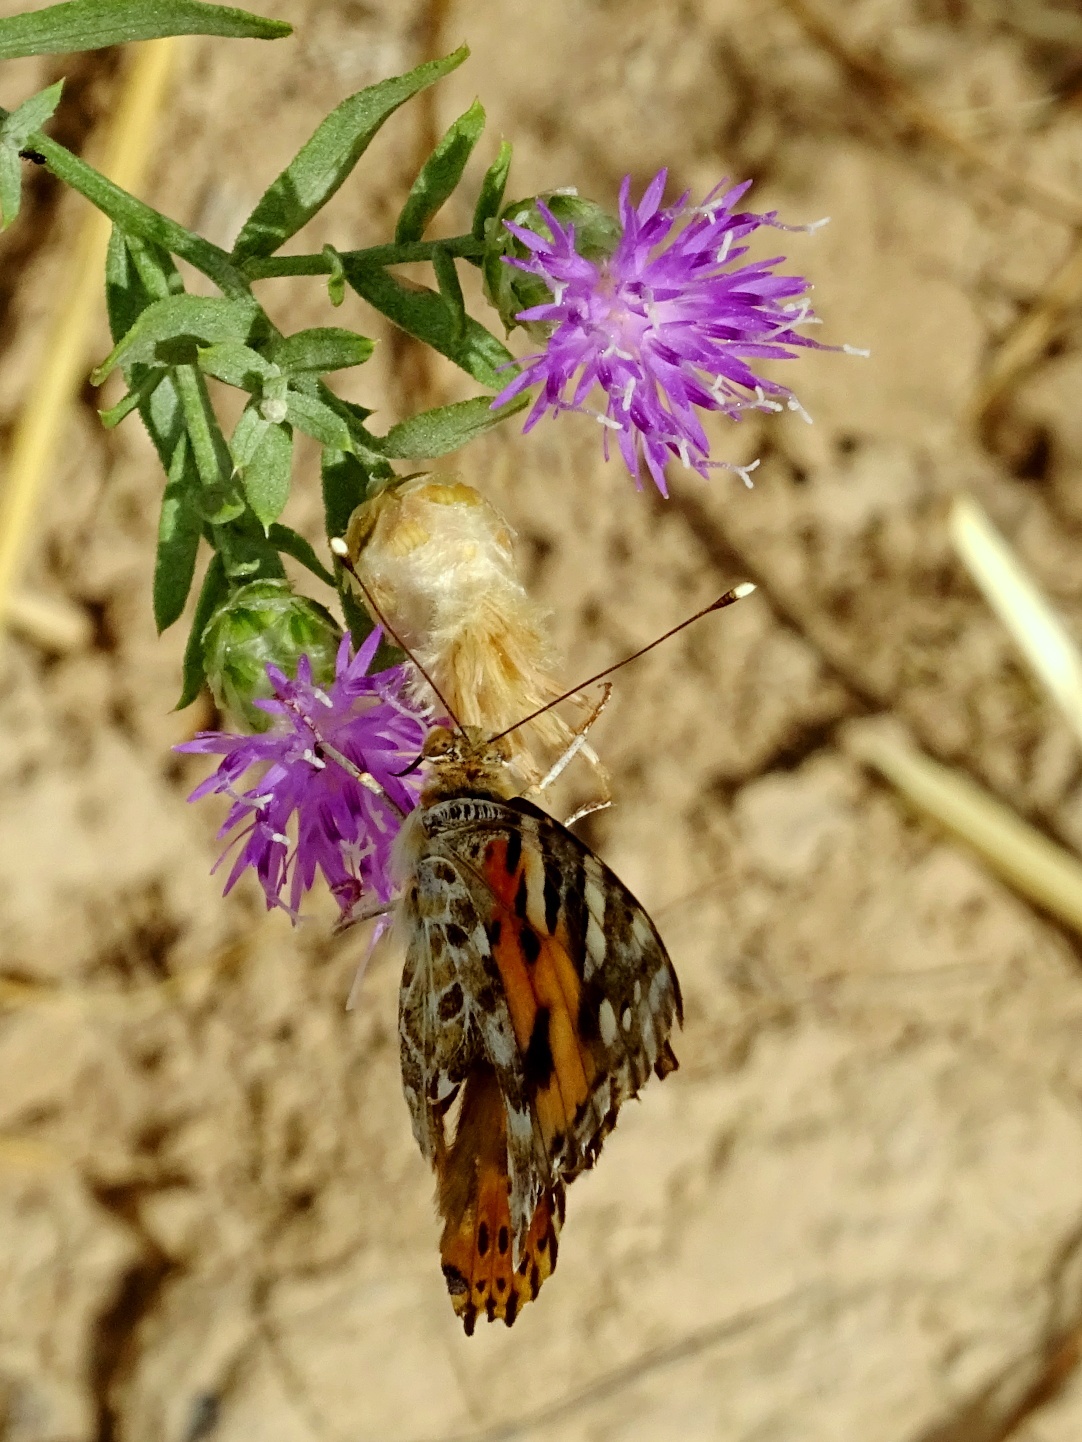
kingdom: Animalia
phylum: Arthropoda
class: Insecta
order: Lepidoptera
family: Nymphalidae
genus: Vanessa
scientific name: Vanessa cardui
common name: Painted lady
